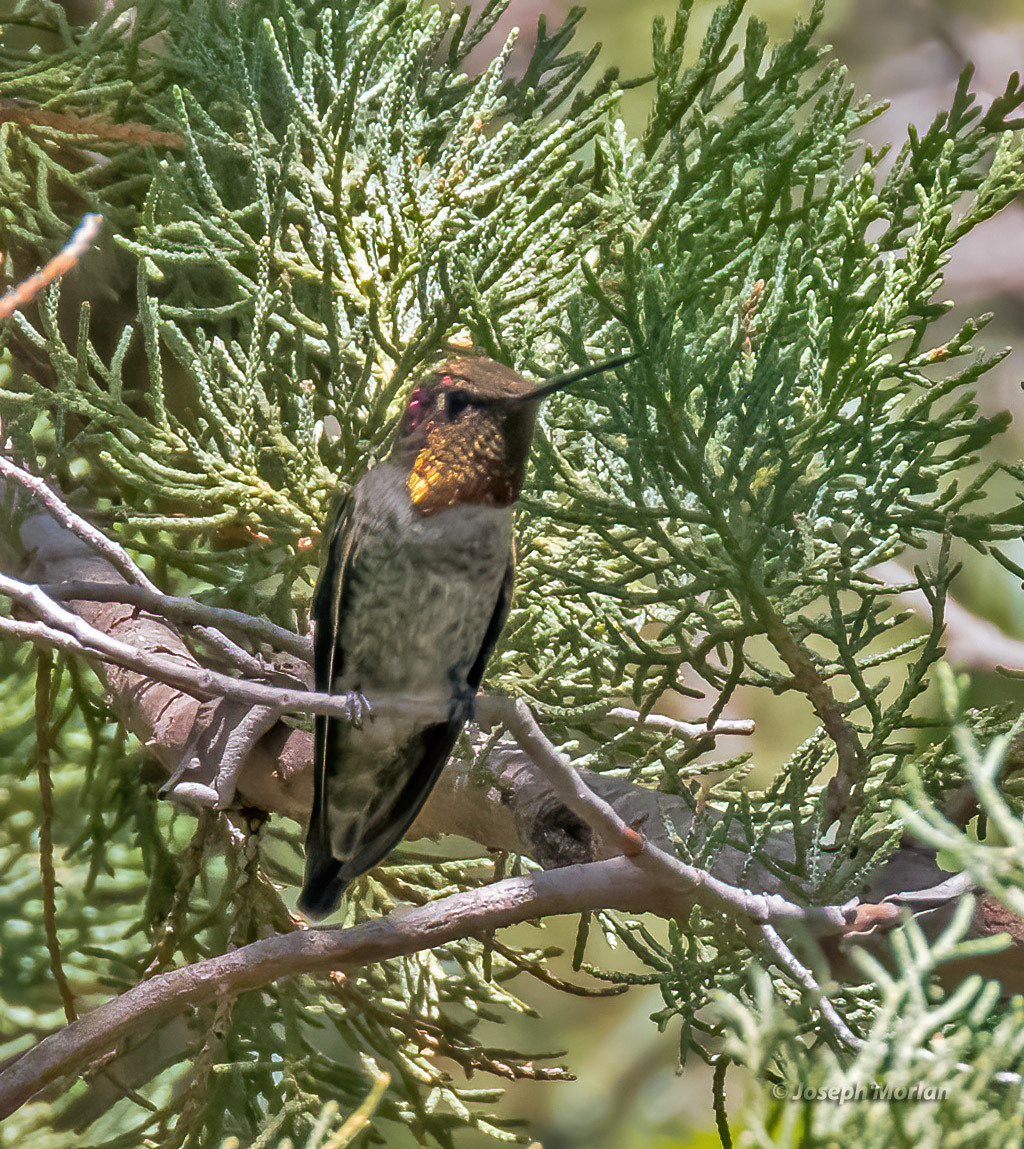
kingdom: Animalia
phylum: Chordata
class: Aves
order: Apodiformes
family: Trochilidae
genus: Calypte
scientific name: Calypte anna
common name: Anna's hummingbird
